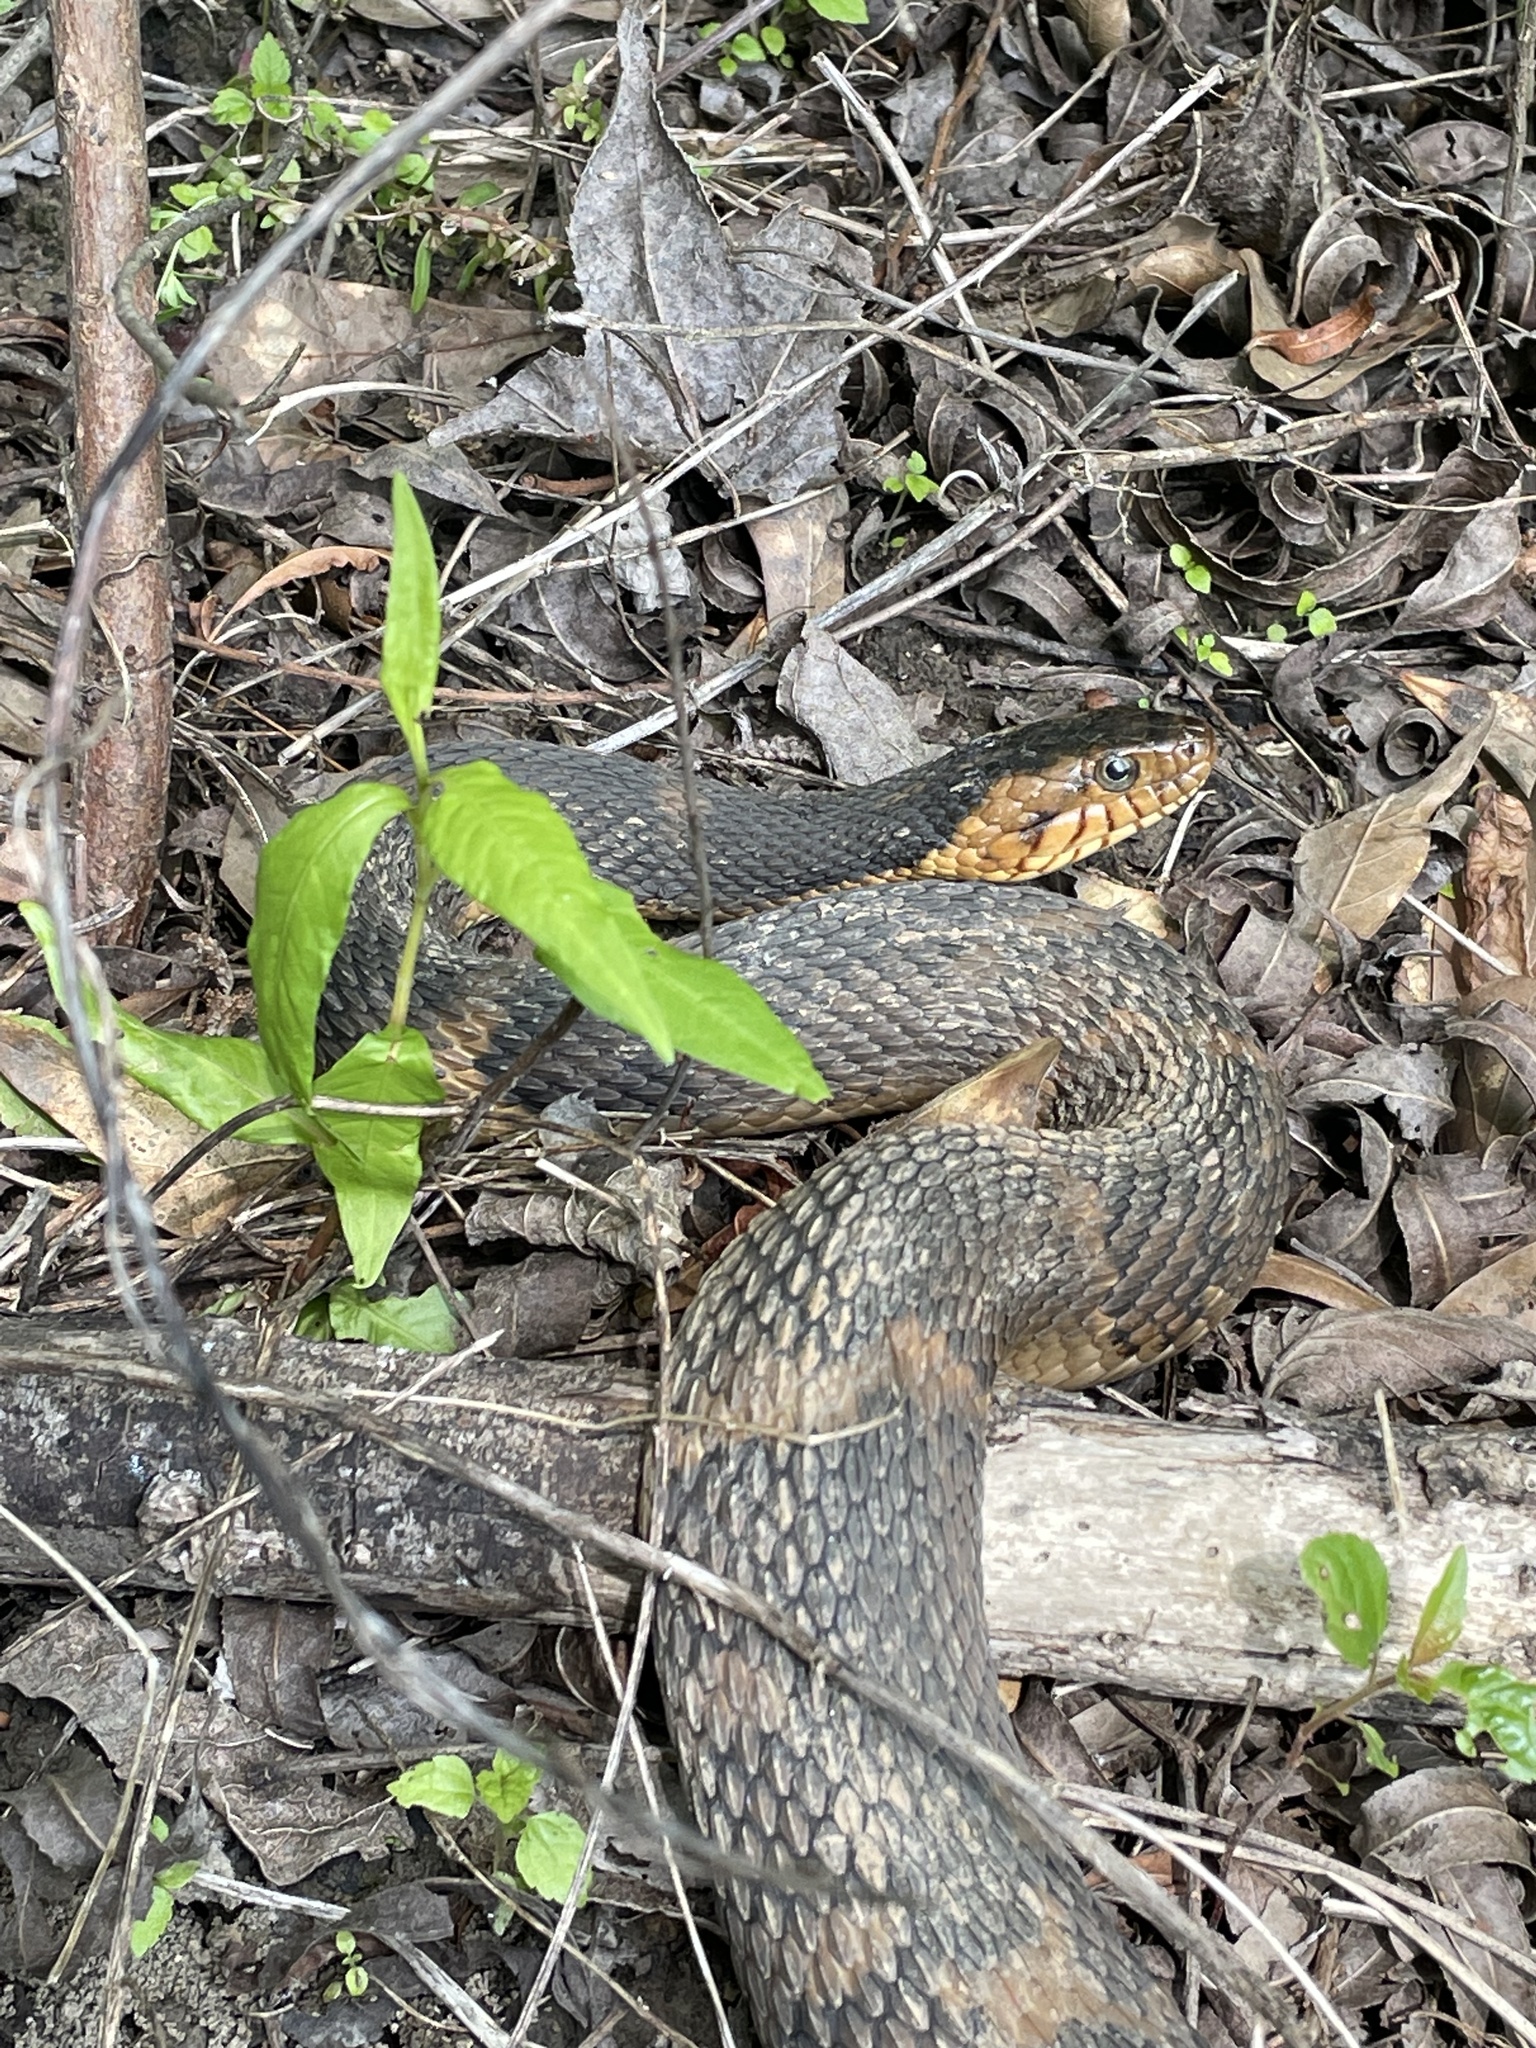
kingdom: Animalia
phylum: Chordata
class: Squamata
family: Colubridae
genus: Nerodia
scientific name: Nerodia fasciata
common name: Southern water snake
